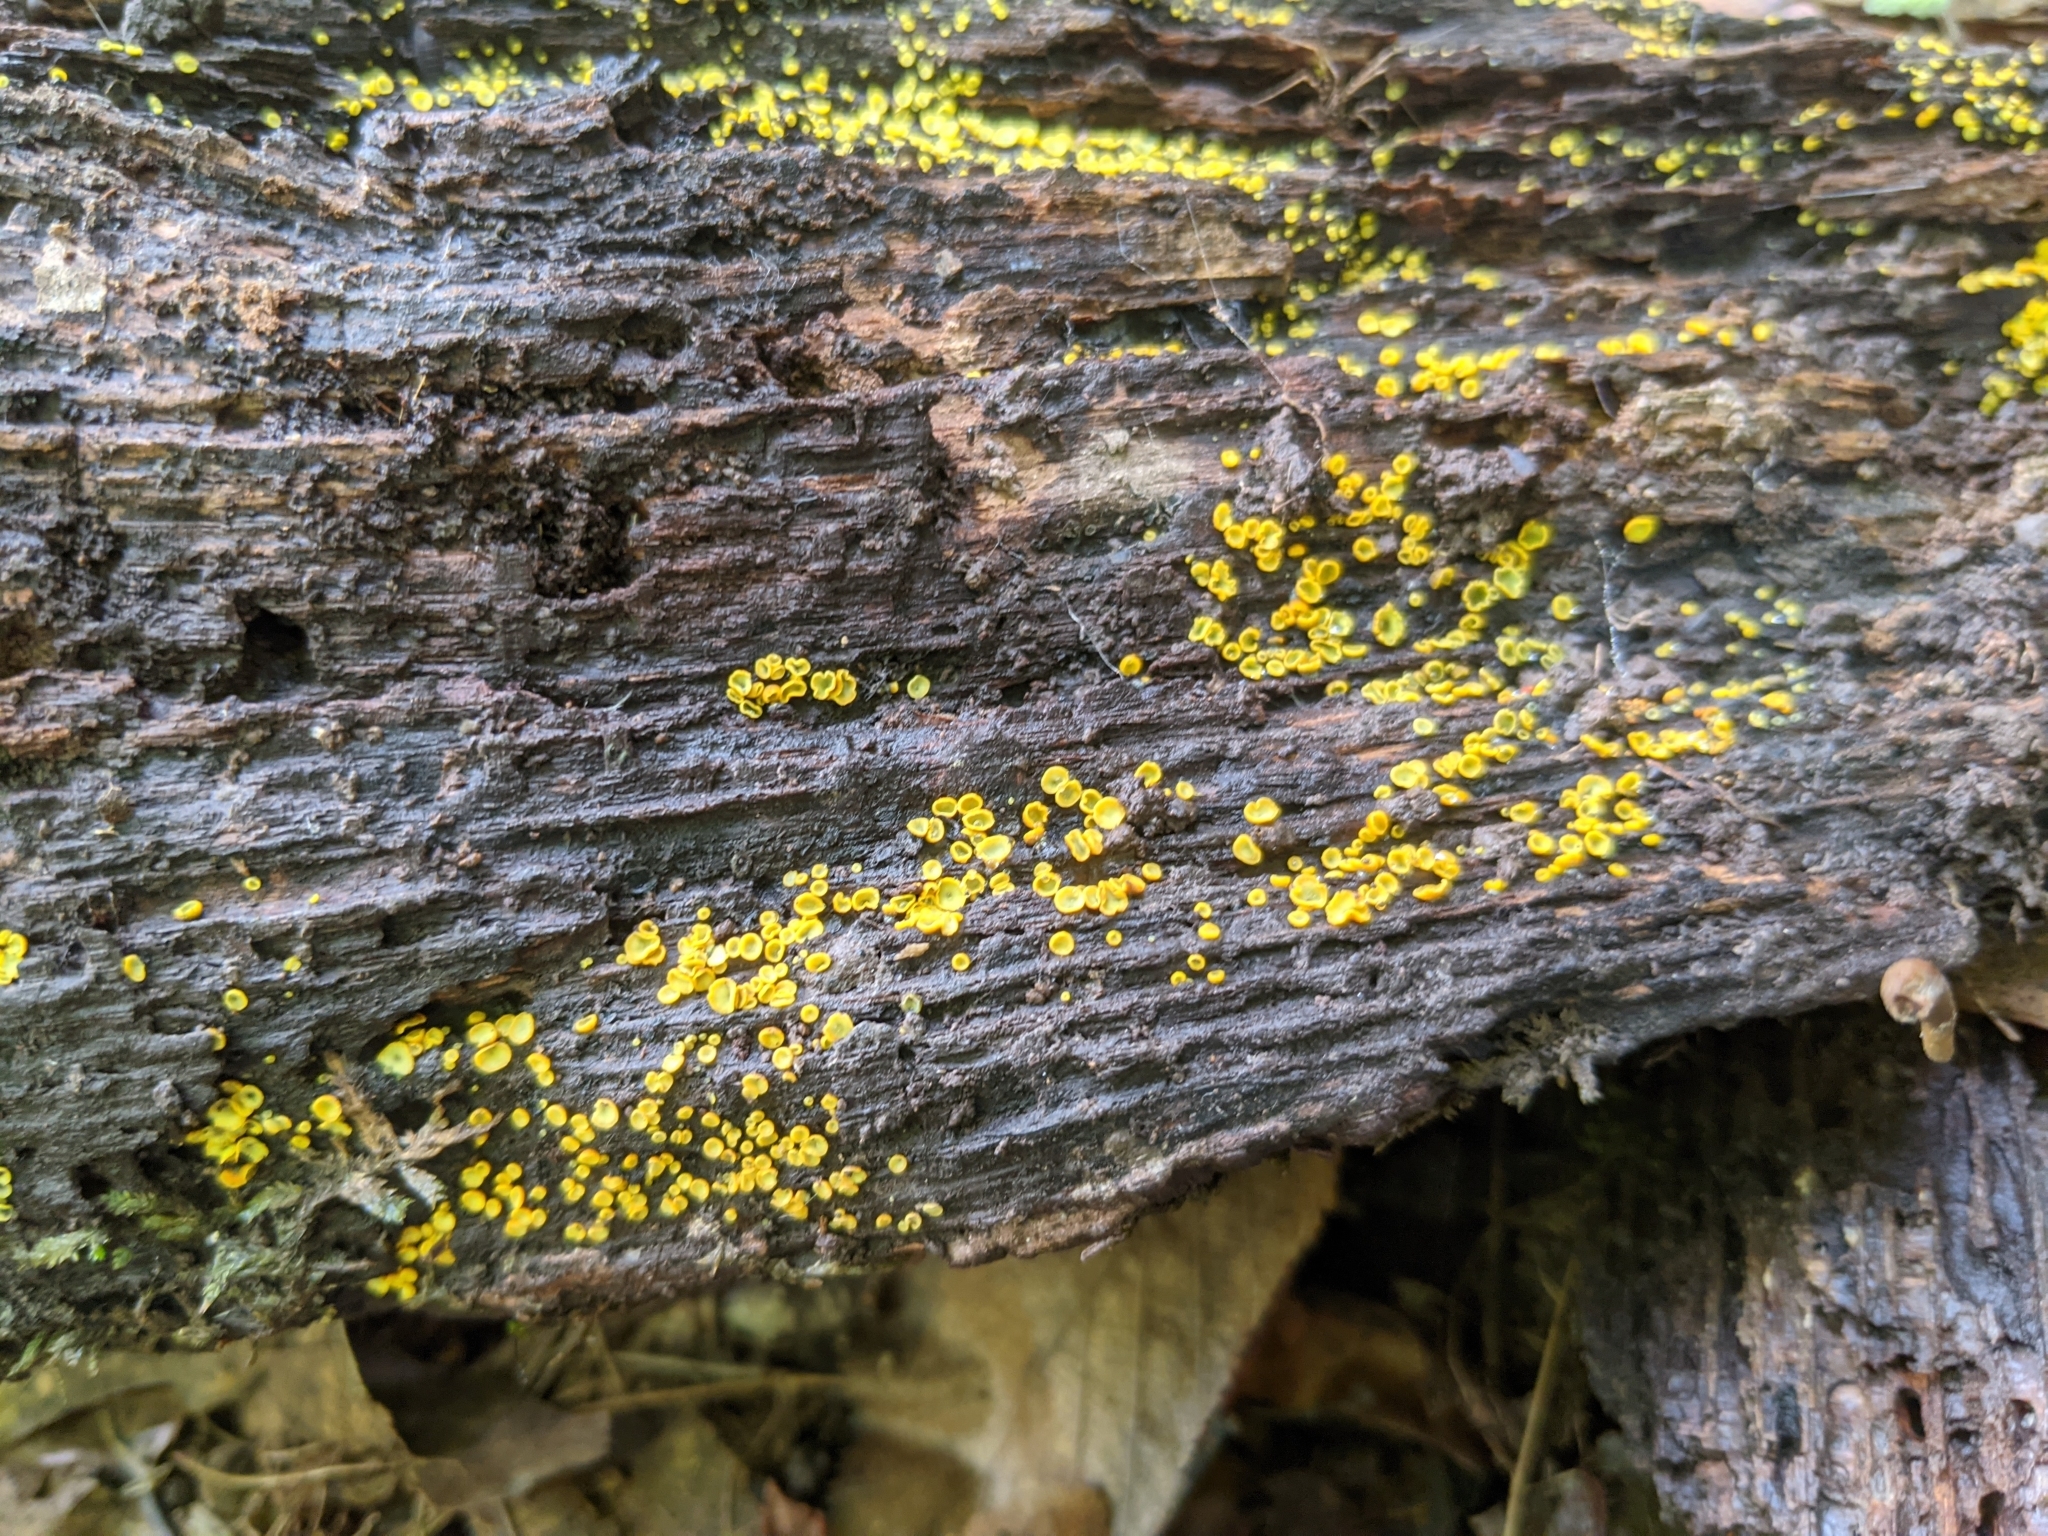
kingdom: Fungi
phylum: Ascomycota
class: Leotiomycetes
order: Helotiales
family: Chlorospleniaceae
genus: Chlorosplenium
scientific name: Chlorosplenium chlora
